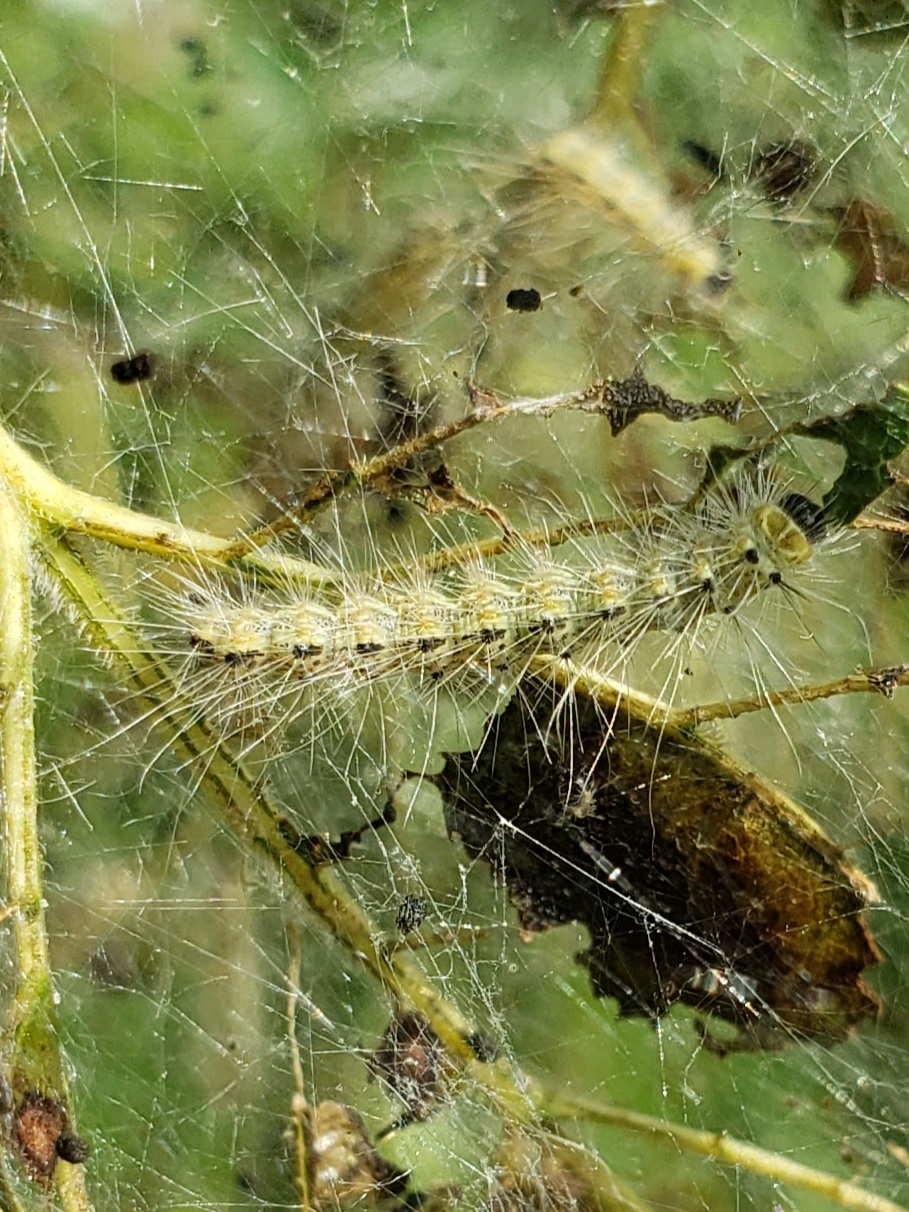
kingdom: Animalia
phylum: Arthropoda
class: Insecta
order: Lepidoptera
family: Erebidae
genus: Hyphantria
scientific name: Hyphantria cunea
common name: American white moth
